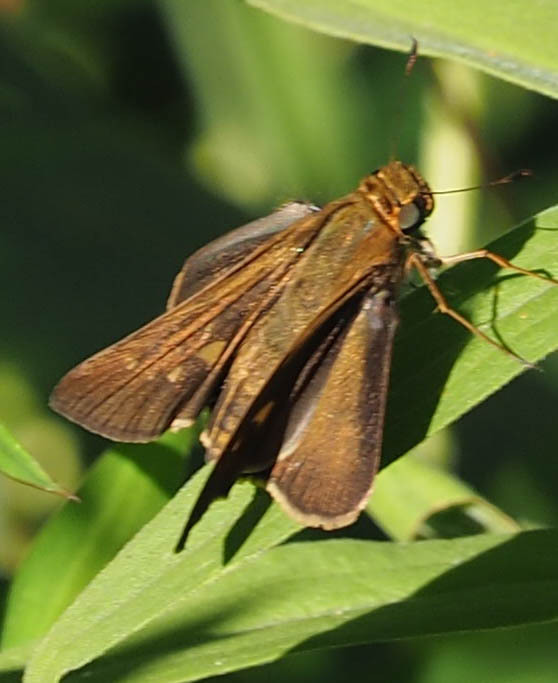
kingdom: Animalia
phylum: Arthropoda
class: Insecta
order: Lepidoptera
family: Hesperiidae
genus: Panoquina
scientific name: Panoquina ocola
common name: Ocola skipper
